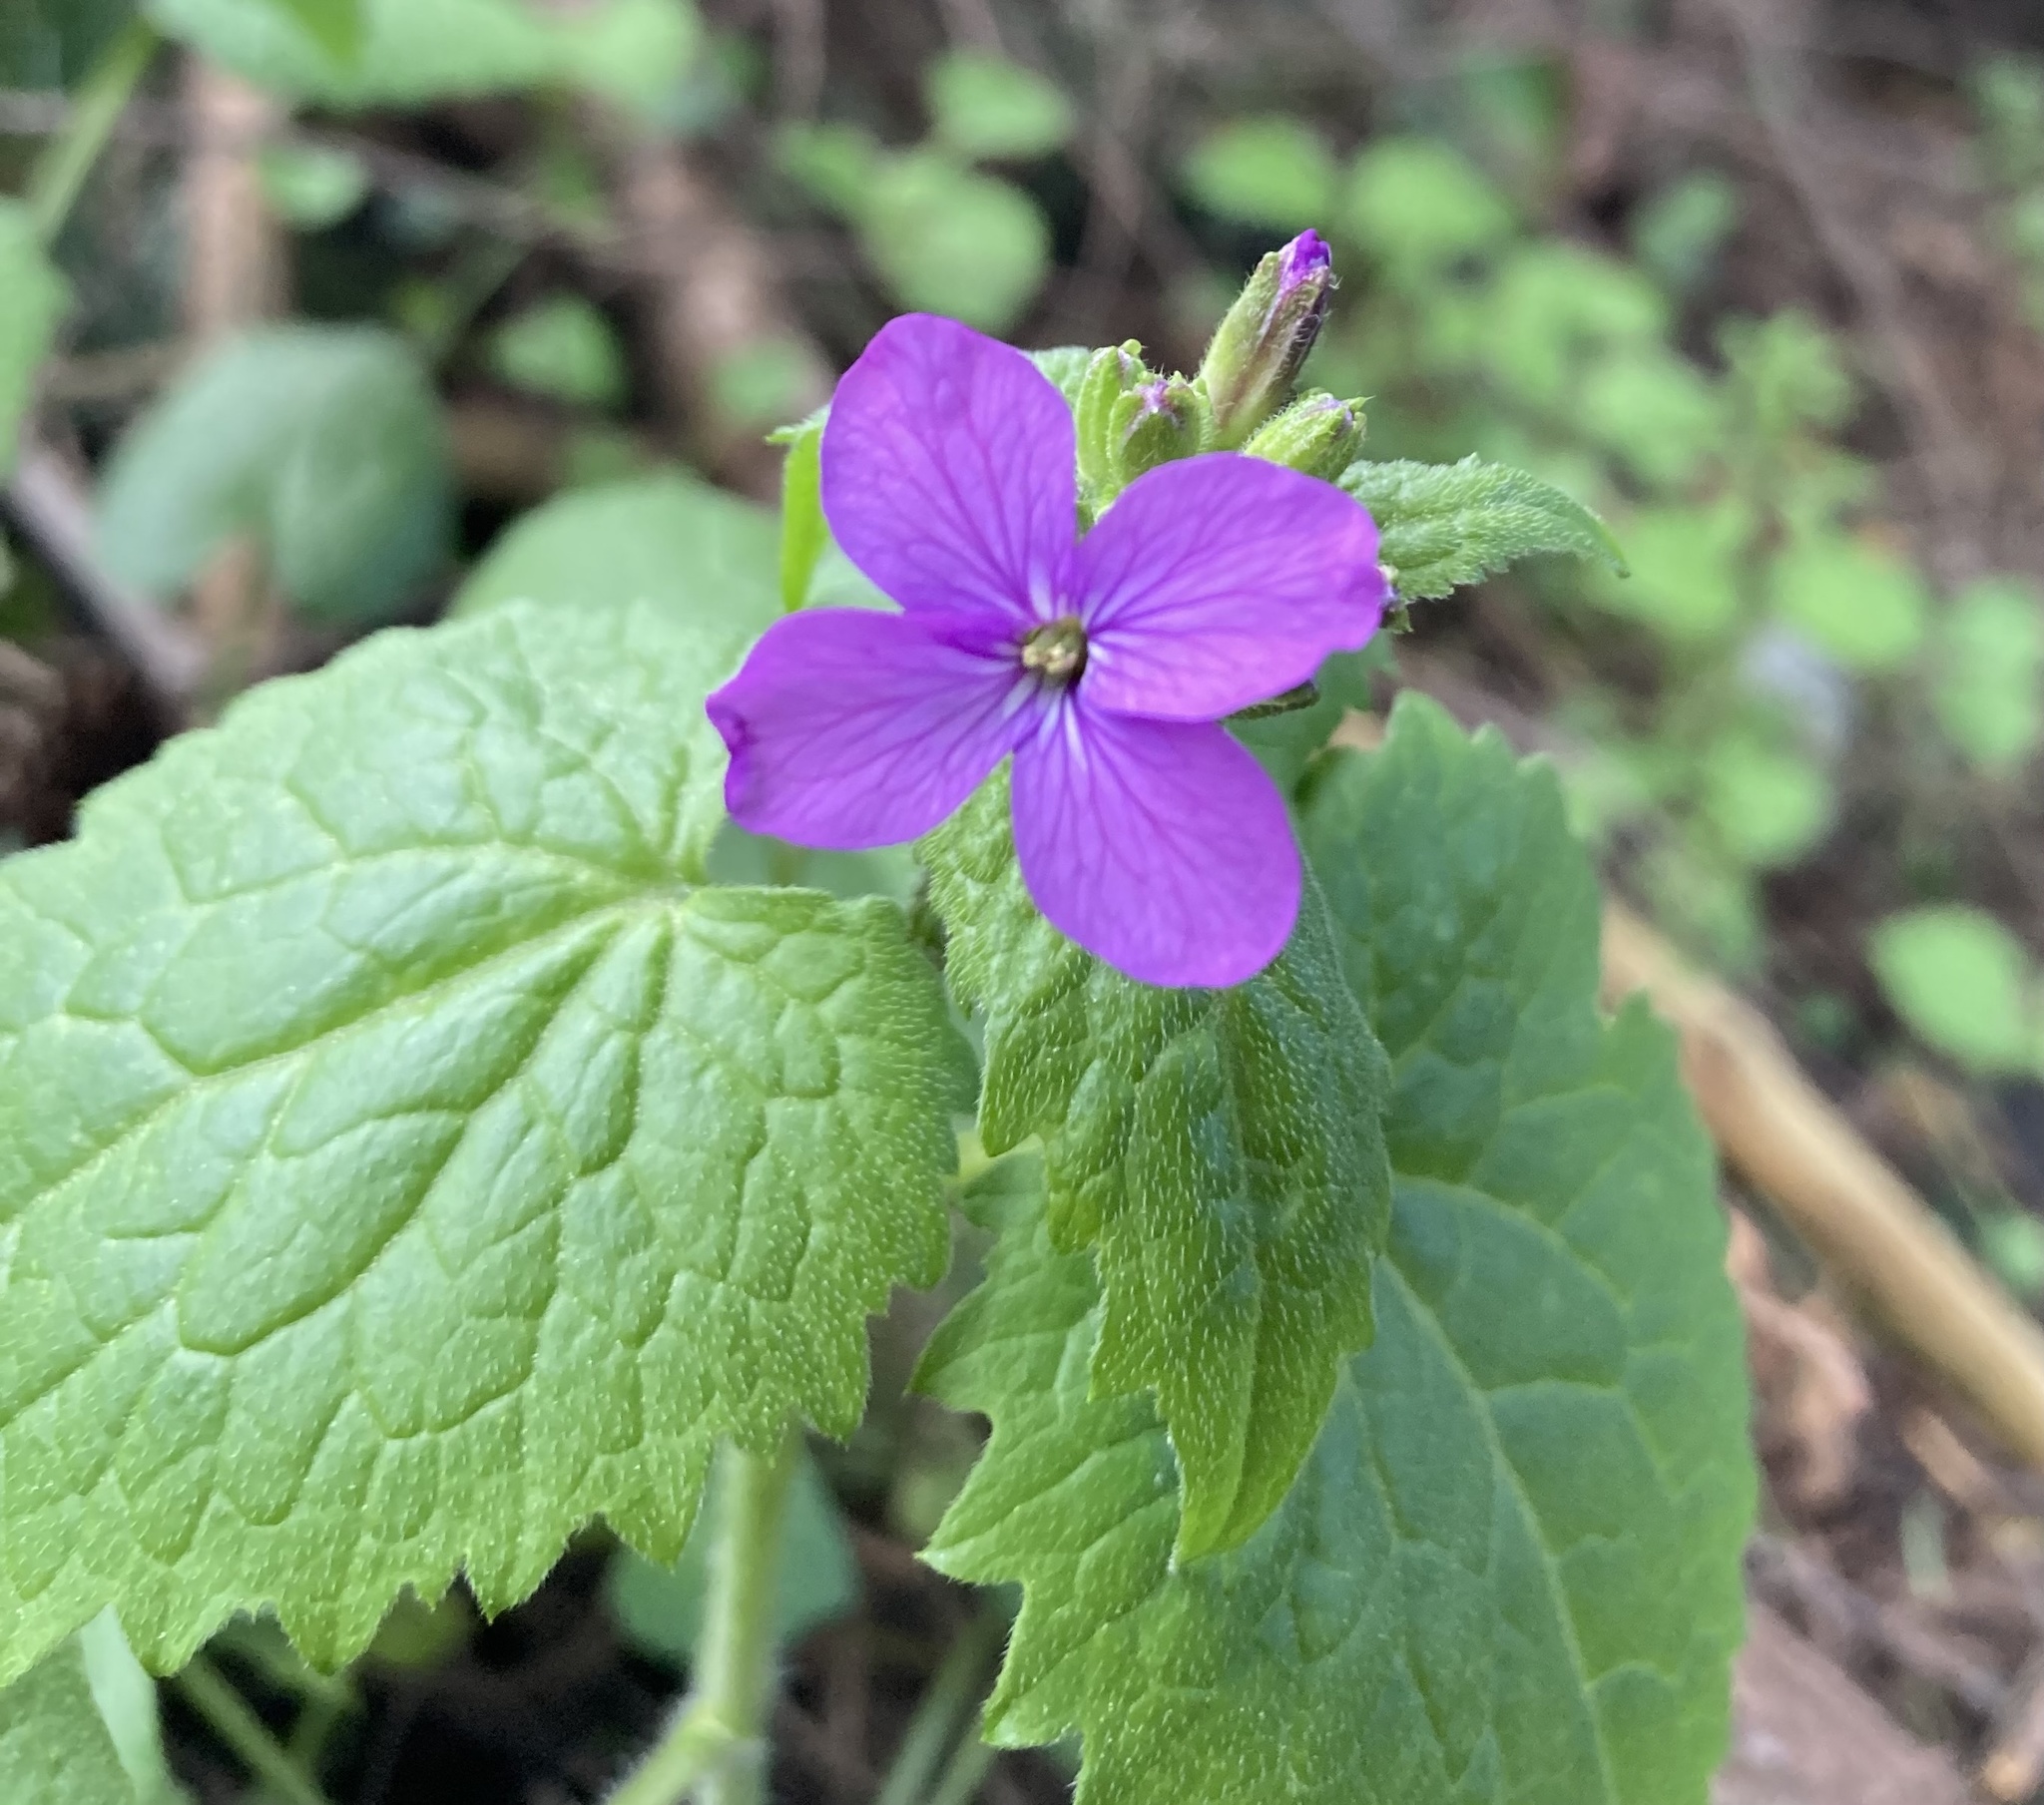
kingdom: Plantae
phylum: Tracheophyta
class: Magnoliopsida
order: Brassicales
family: Brassicaceae
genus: Lunaria
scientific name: Lunaria annua
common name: Honesty
